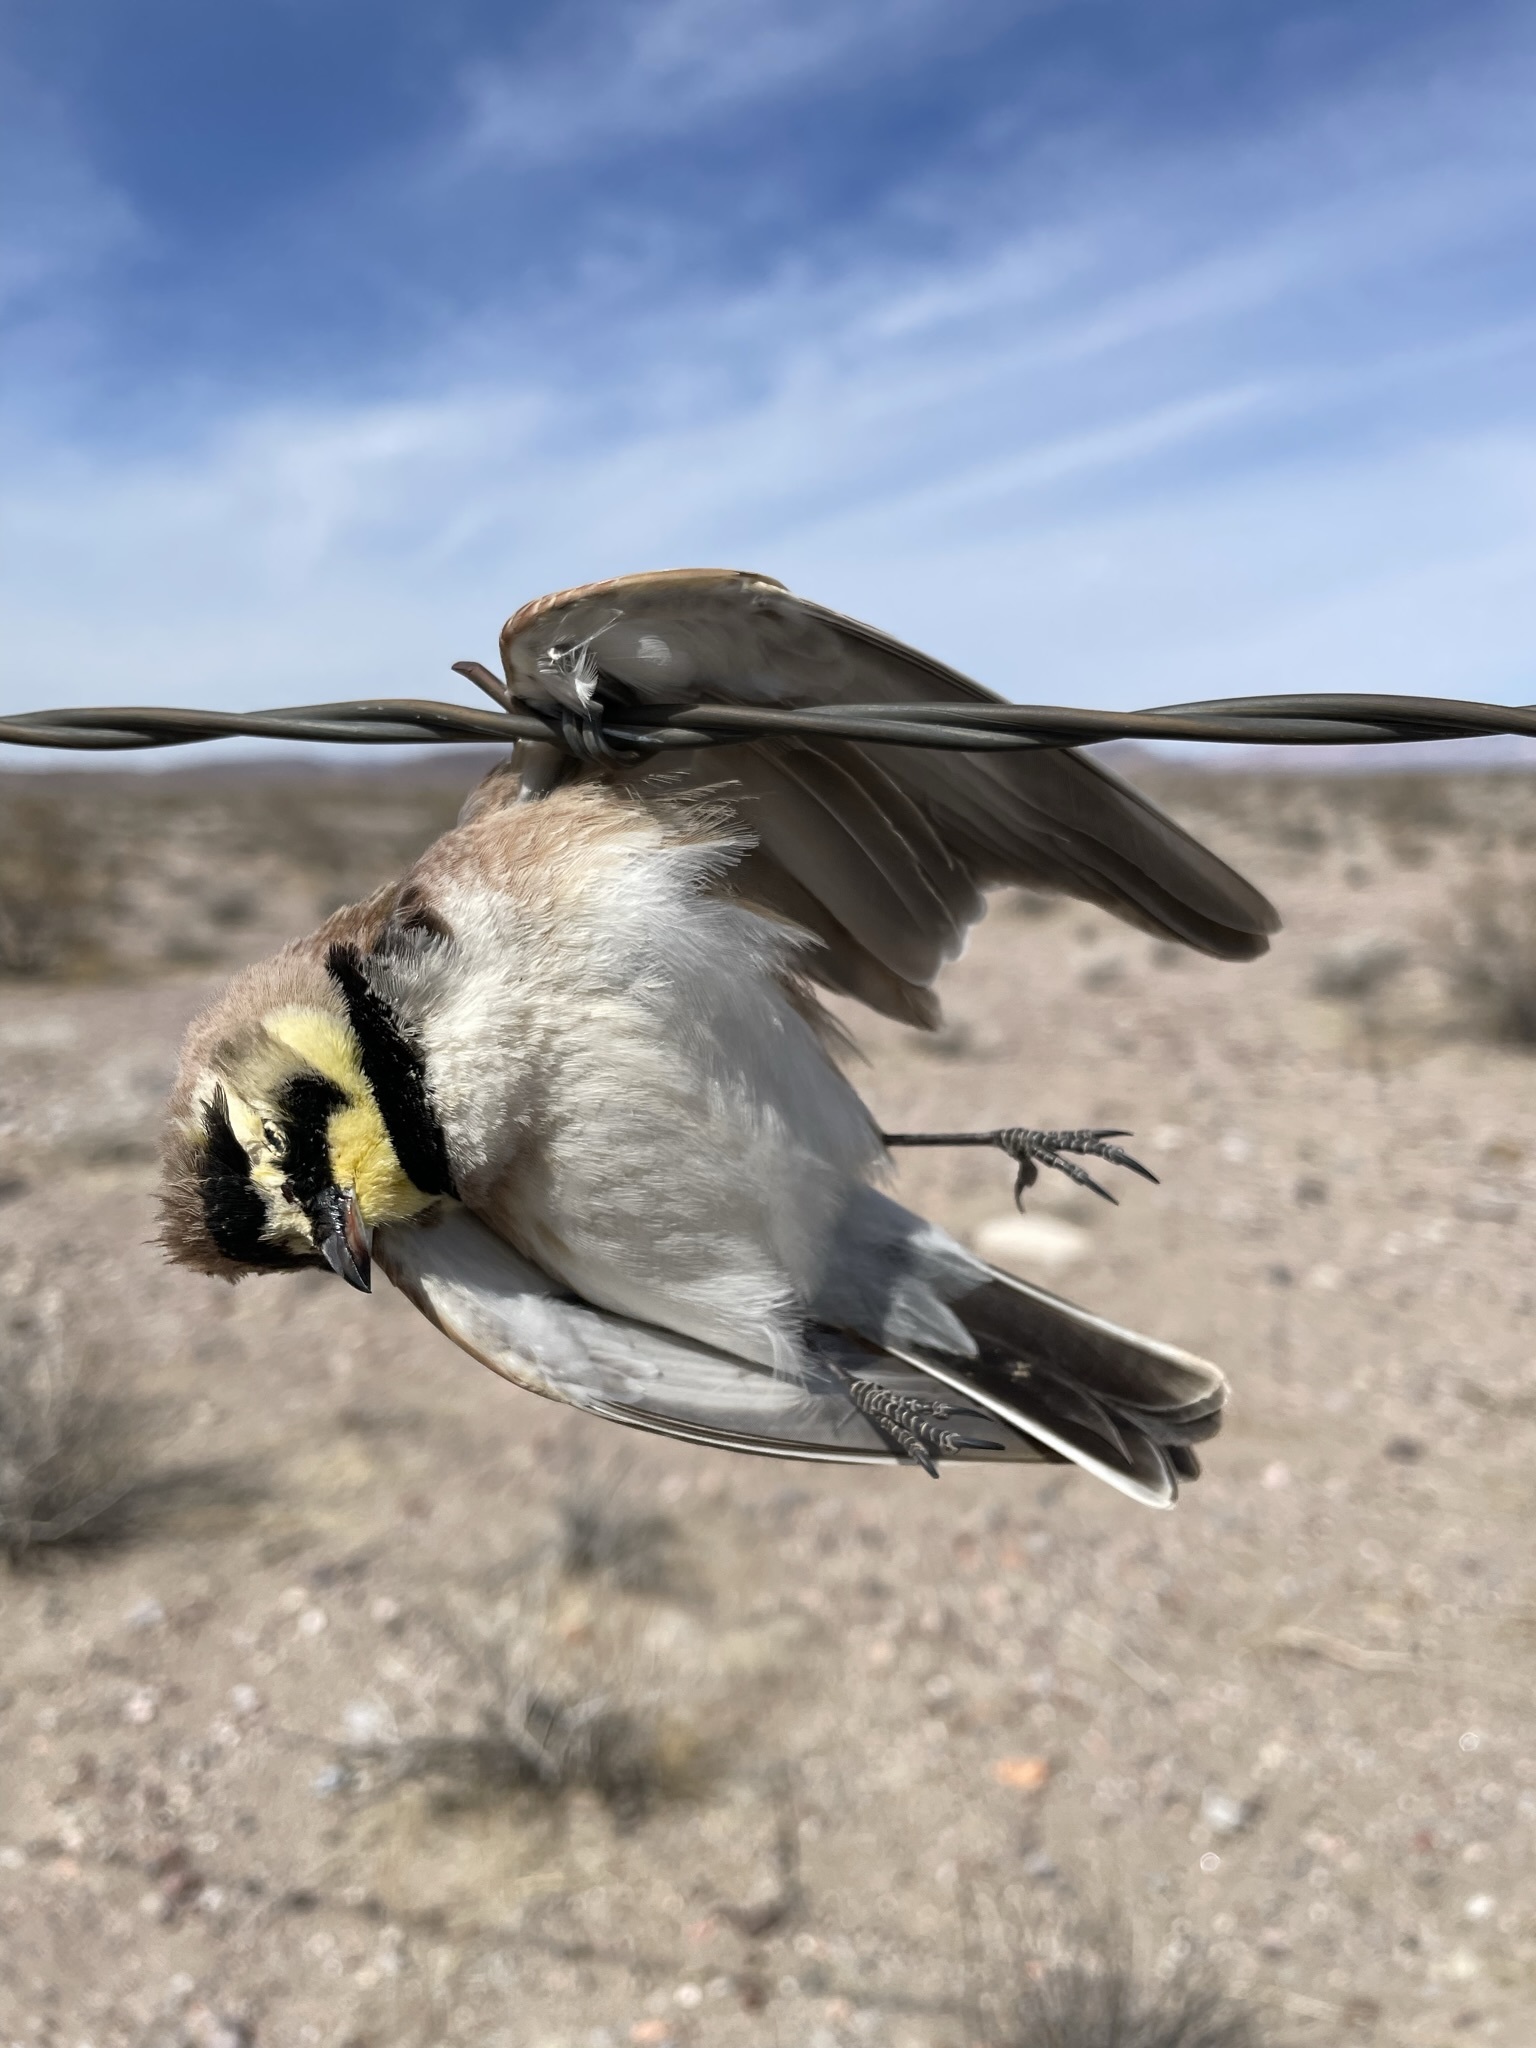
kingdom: Animalia
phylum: Chordata
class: Aves
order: Passeriformes
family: Alaudidae
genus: Eremophila
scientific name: Eremophila alpestris
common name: Horned lark
